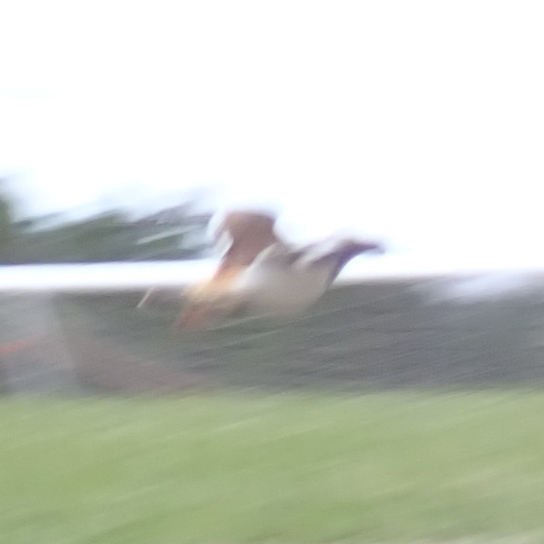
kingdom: Animalia
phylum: Chordata
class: Aves
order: Charadriiformes
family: Charadriidae
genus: Charadrius
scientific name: Charadrius vociferus
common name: Killdeer
